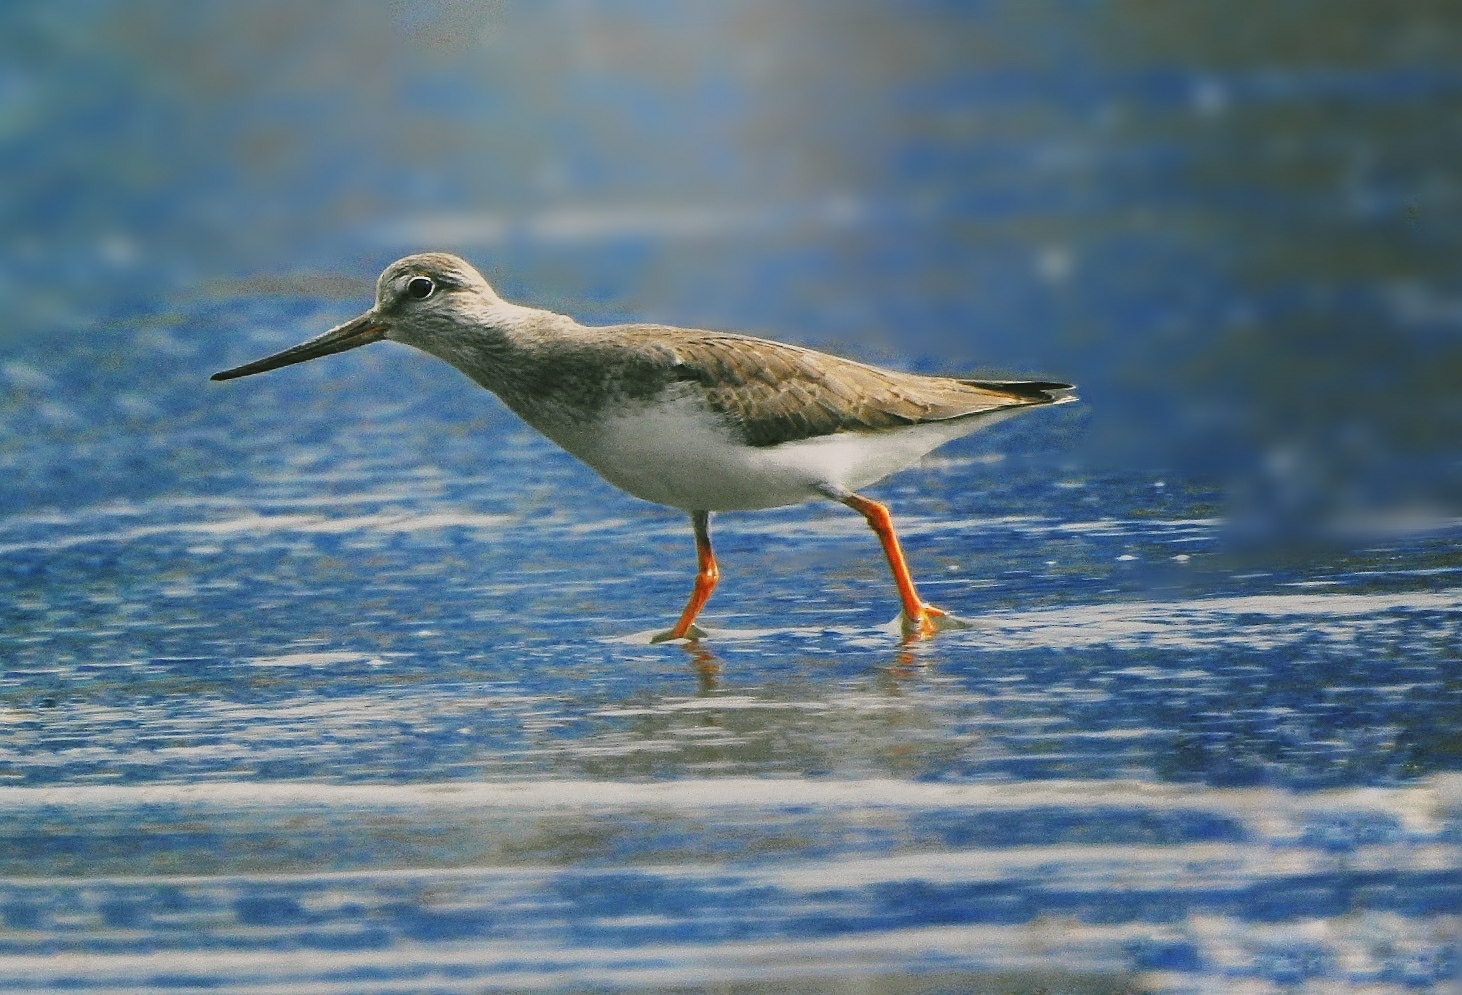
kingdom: Animalia
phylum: Chordata
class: Aves
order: Charadriiformes
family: Scolopacidae
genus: Xenus
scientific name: Xenus cinereus
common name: Terek sandpiper
